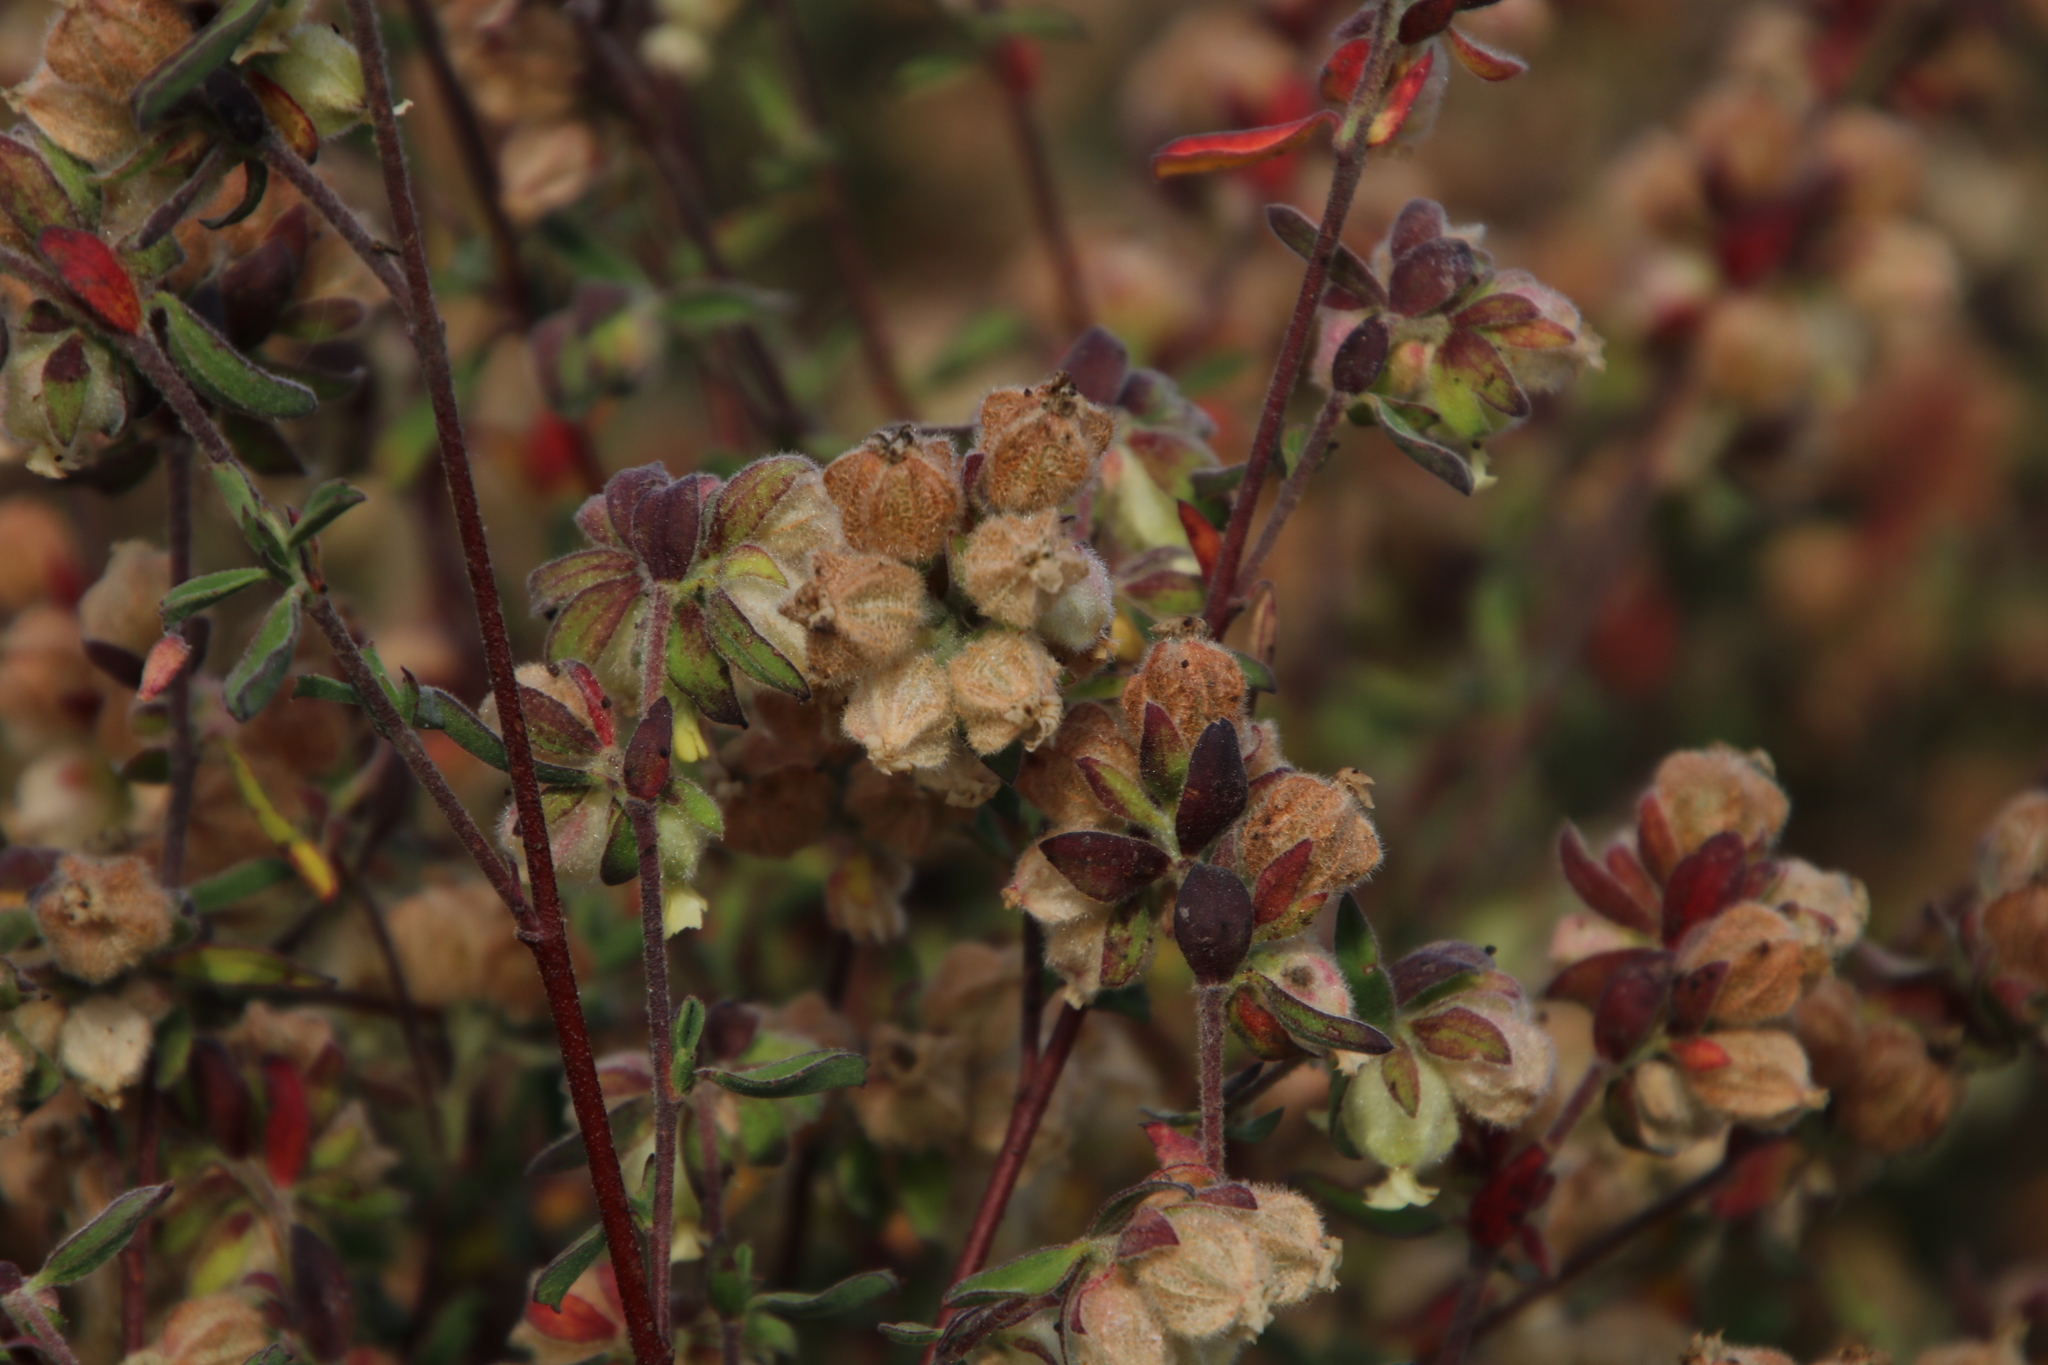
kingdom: Plantae
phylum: Tracheophyta
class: Magnoliopsida
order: Malvales
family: Malvaceae
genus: Hermannia
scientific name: Hermannia hyssopifolia
